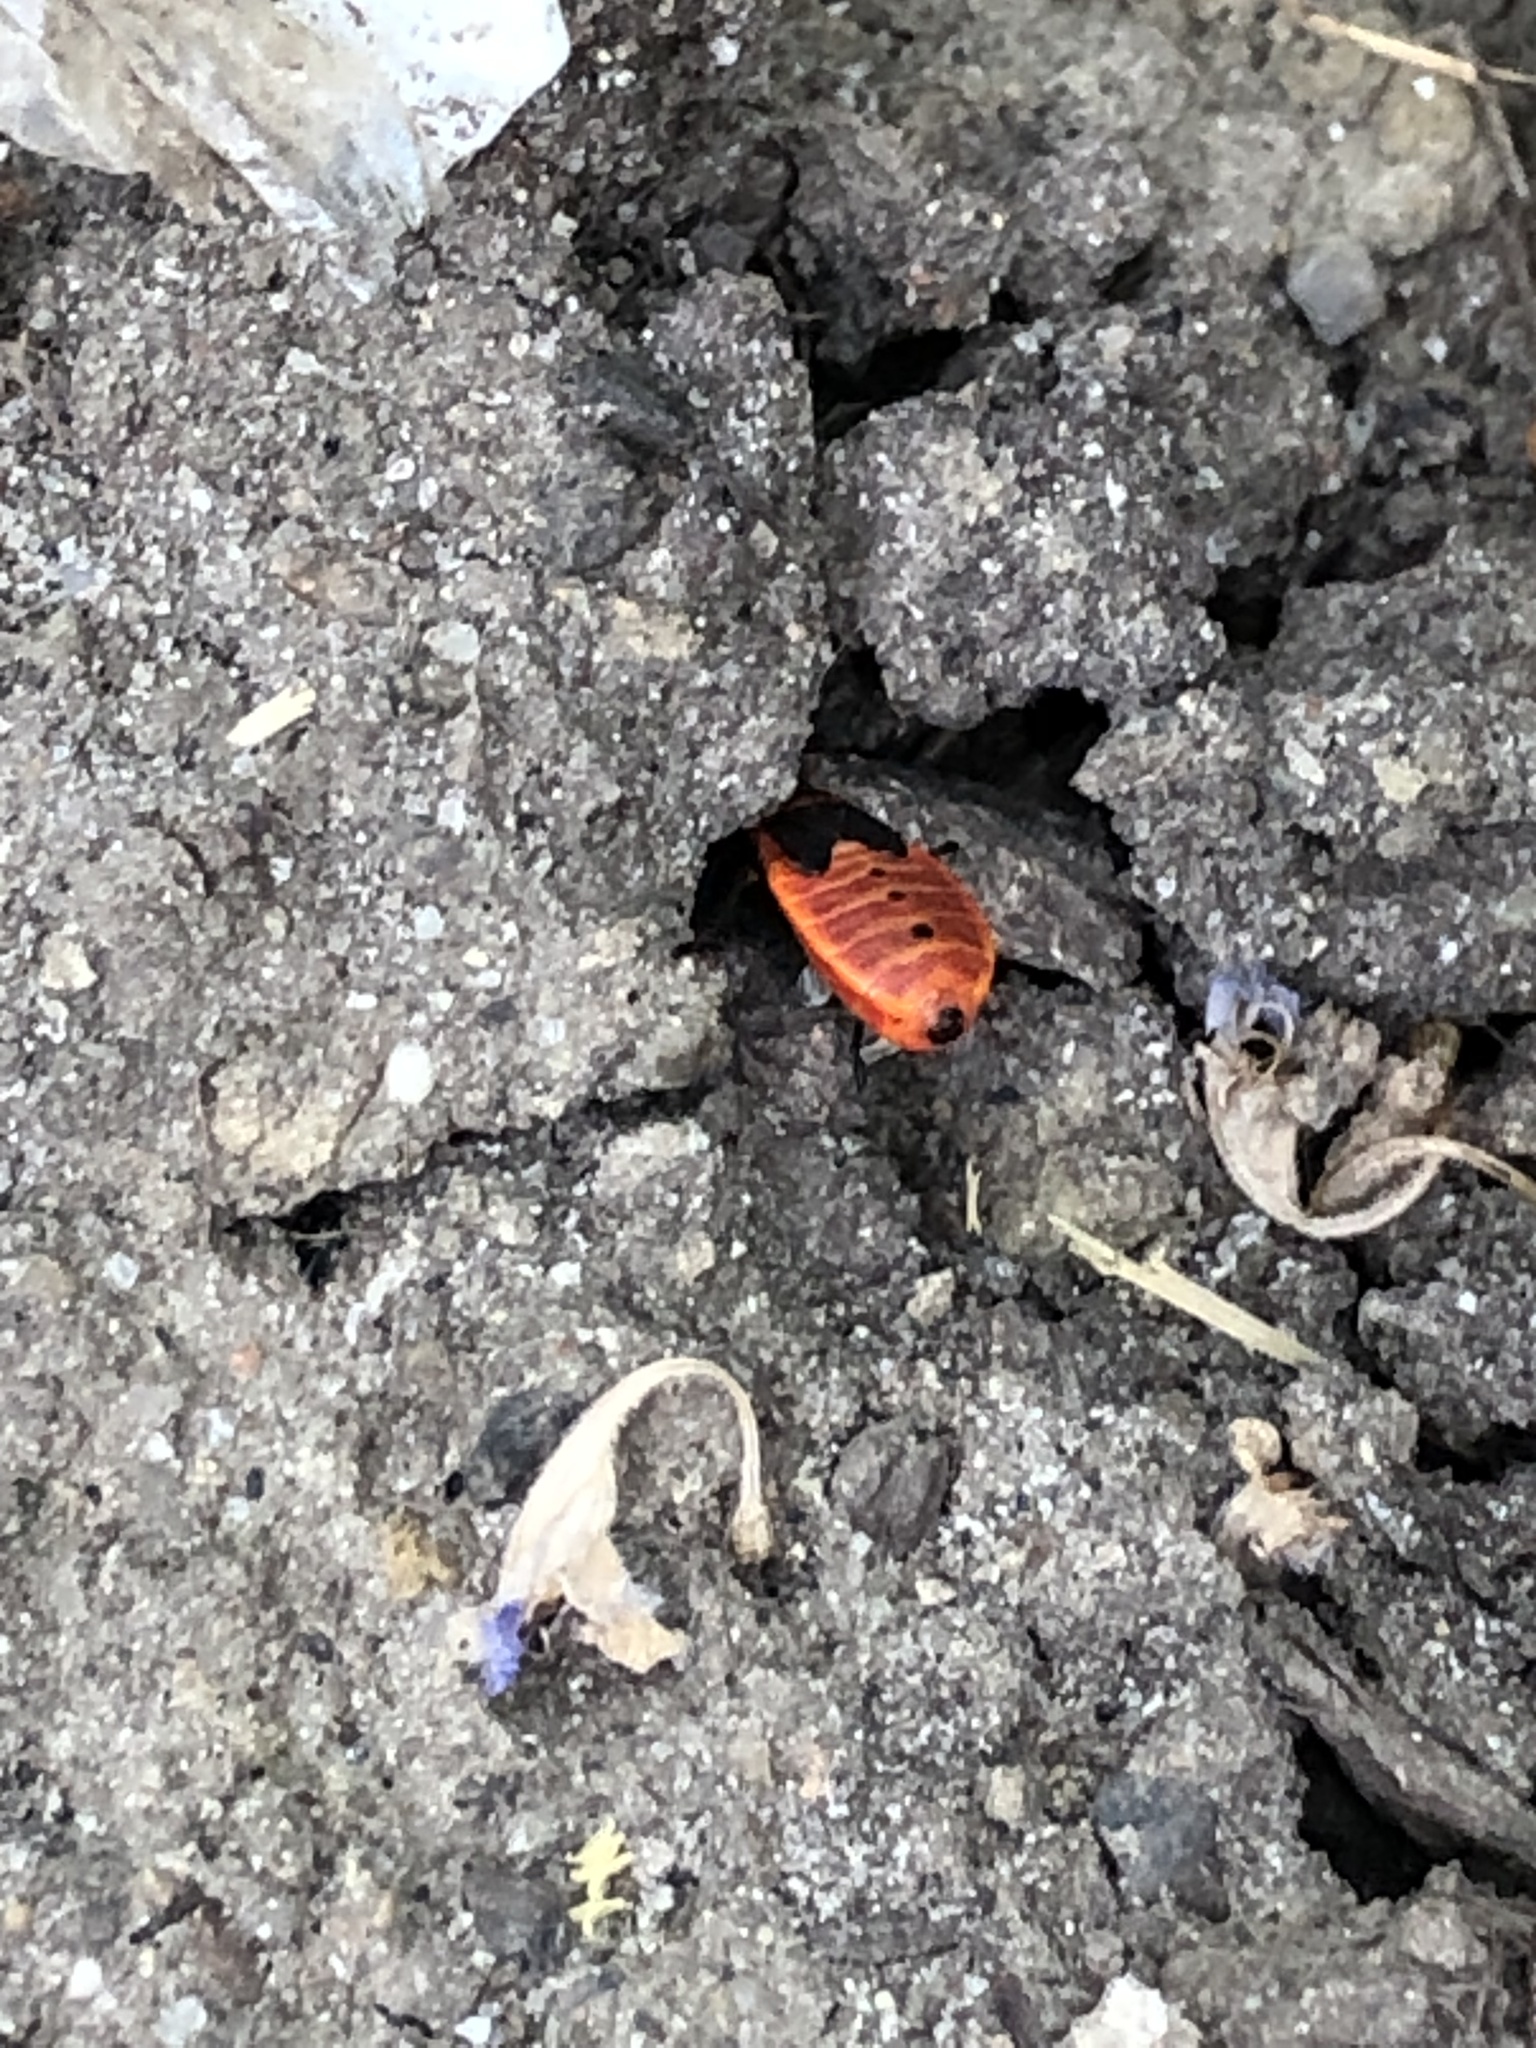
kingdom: Animalia
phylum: Arthropoda
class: Insecta
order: Hemiptera
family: Pyrrhocoridae
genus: Pyrrhocoris
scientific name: Pyrrhocoris apterus
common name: Firebug
